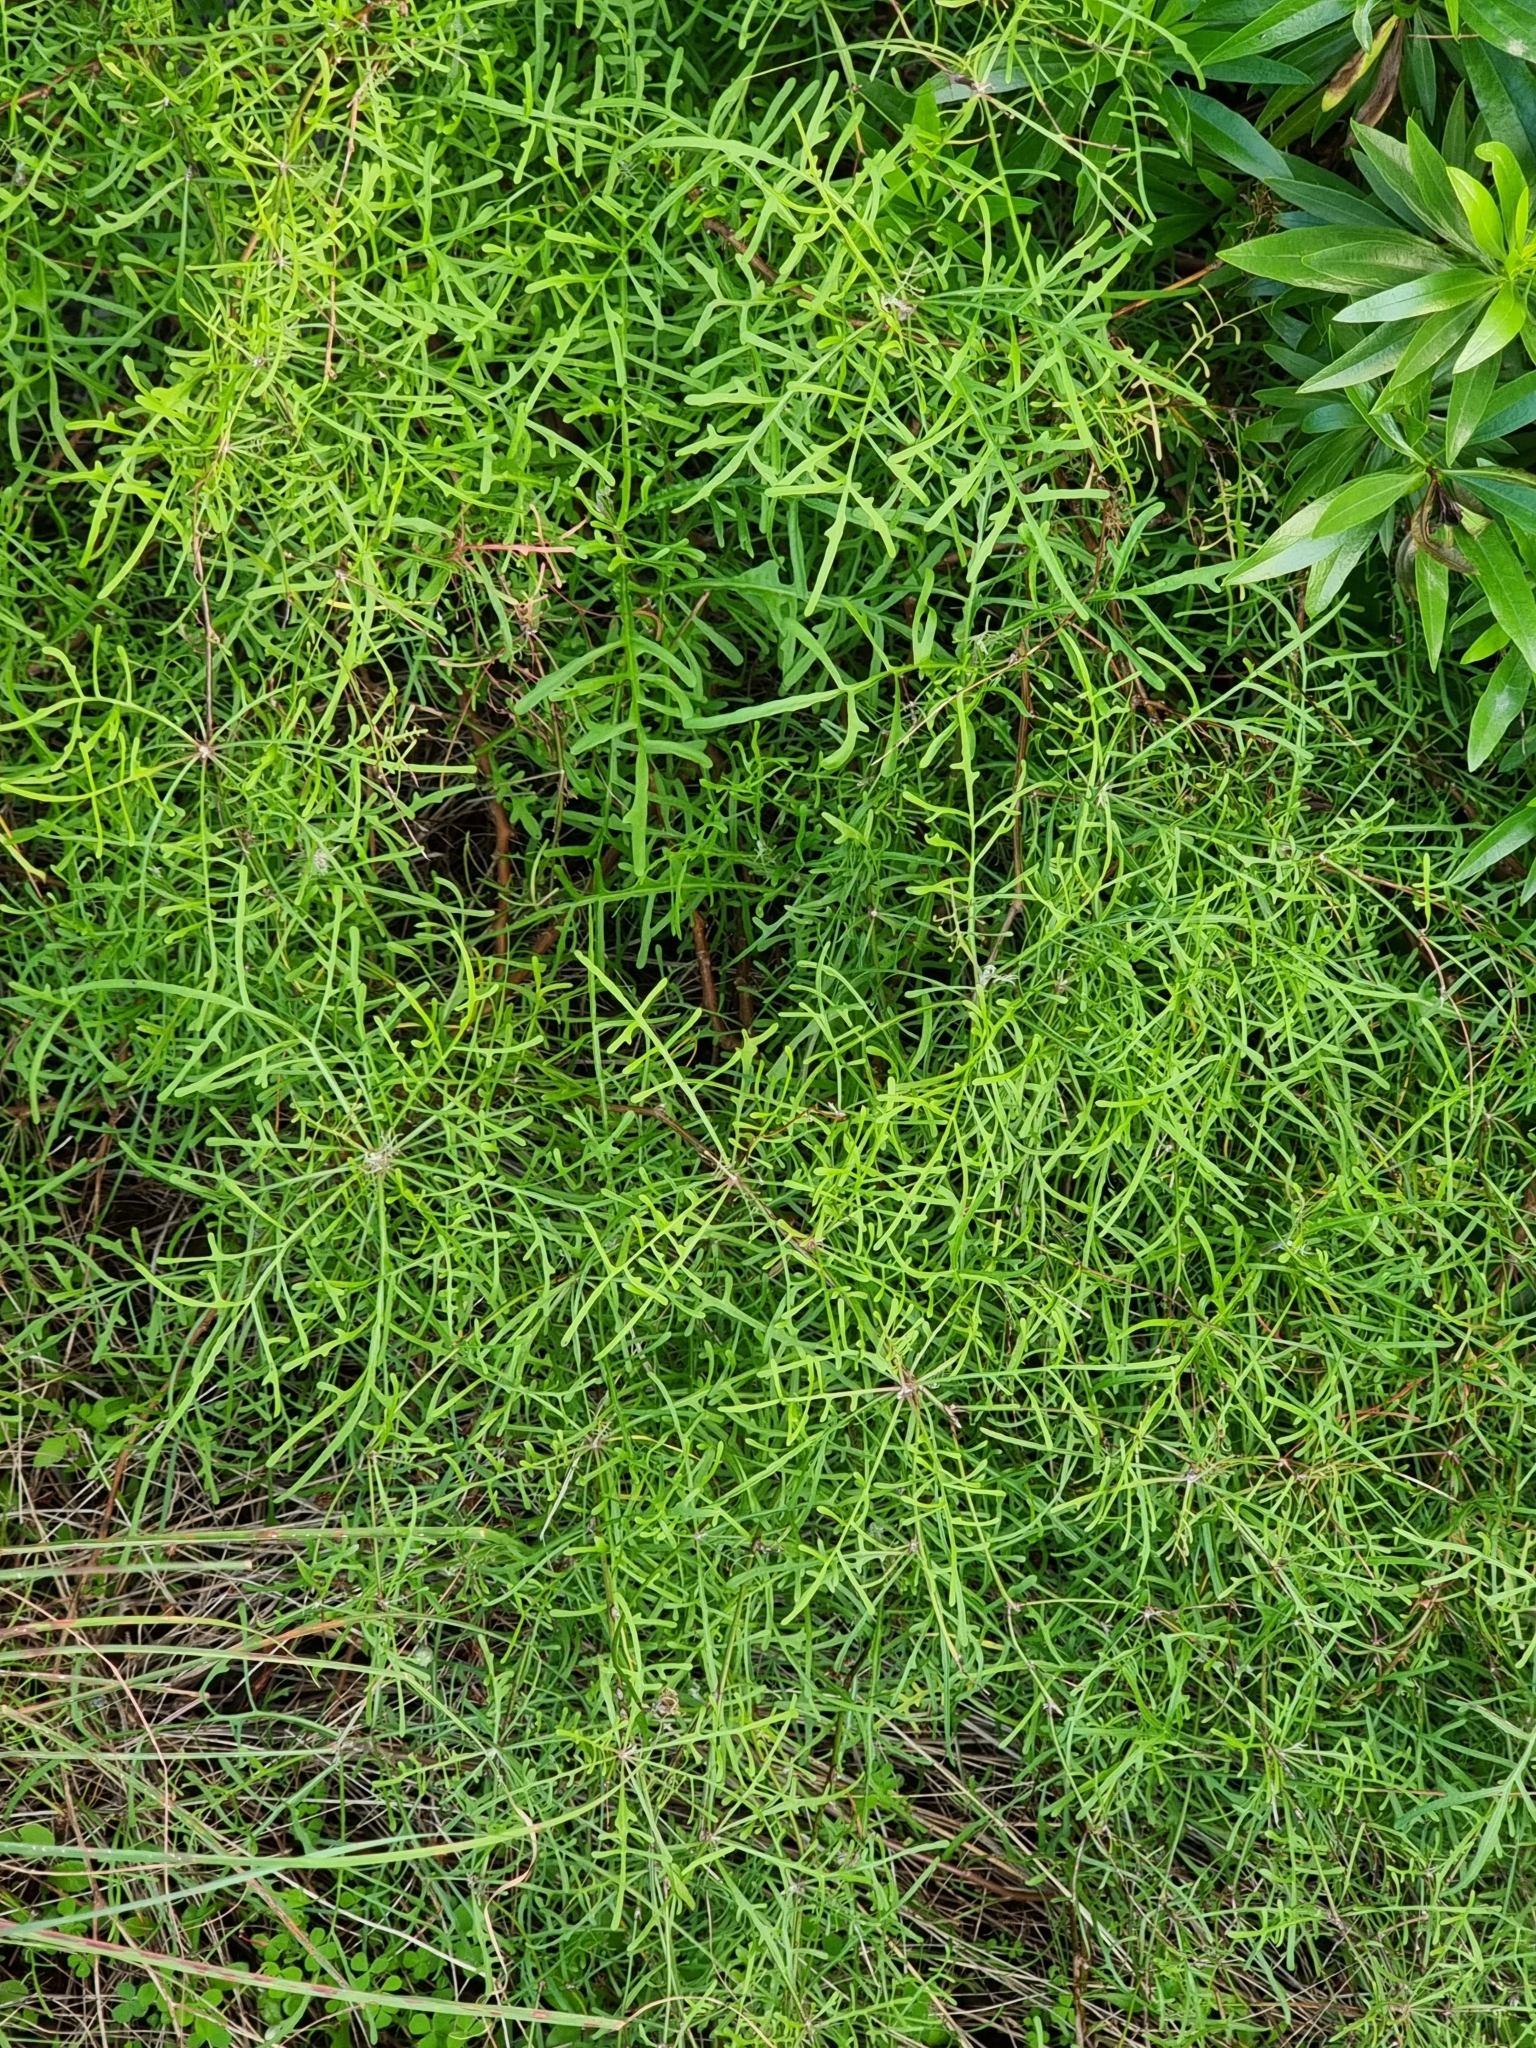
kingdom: Plantae
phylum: Tracheophyta
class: Magnoliopsida
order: Asterales
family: Asteraceae
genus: Tolpis
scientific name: Tolpis succulenta
